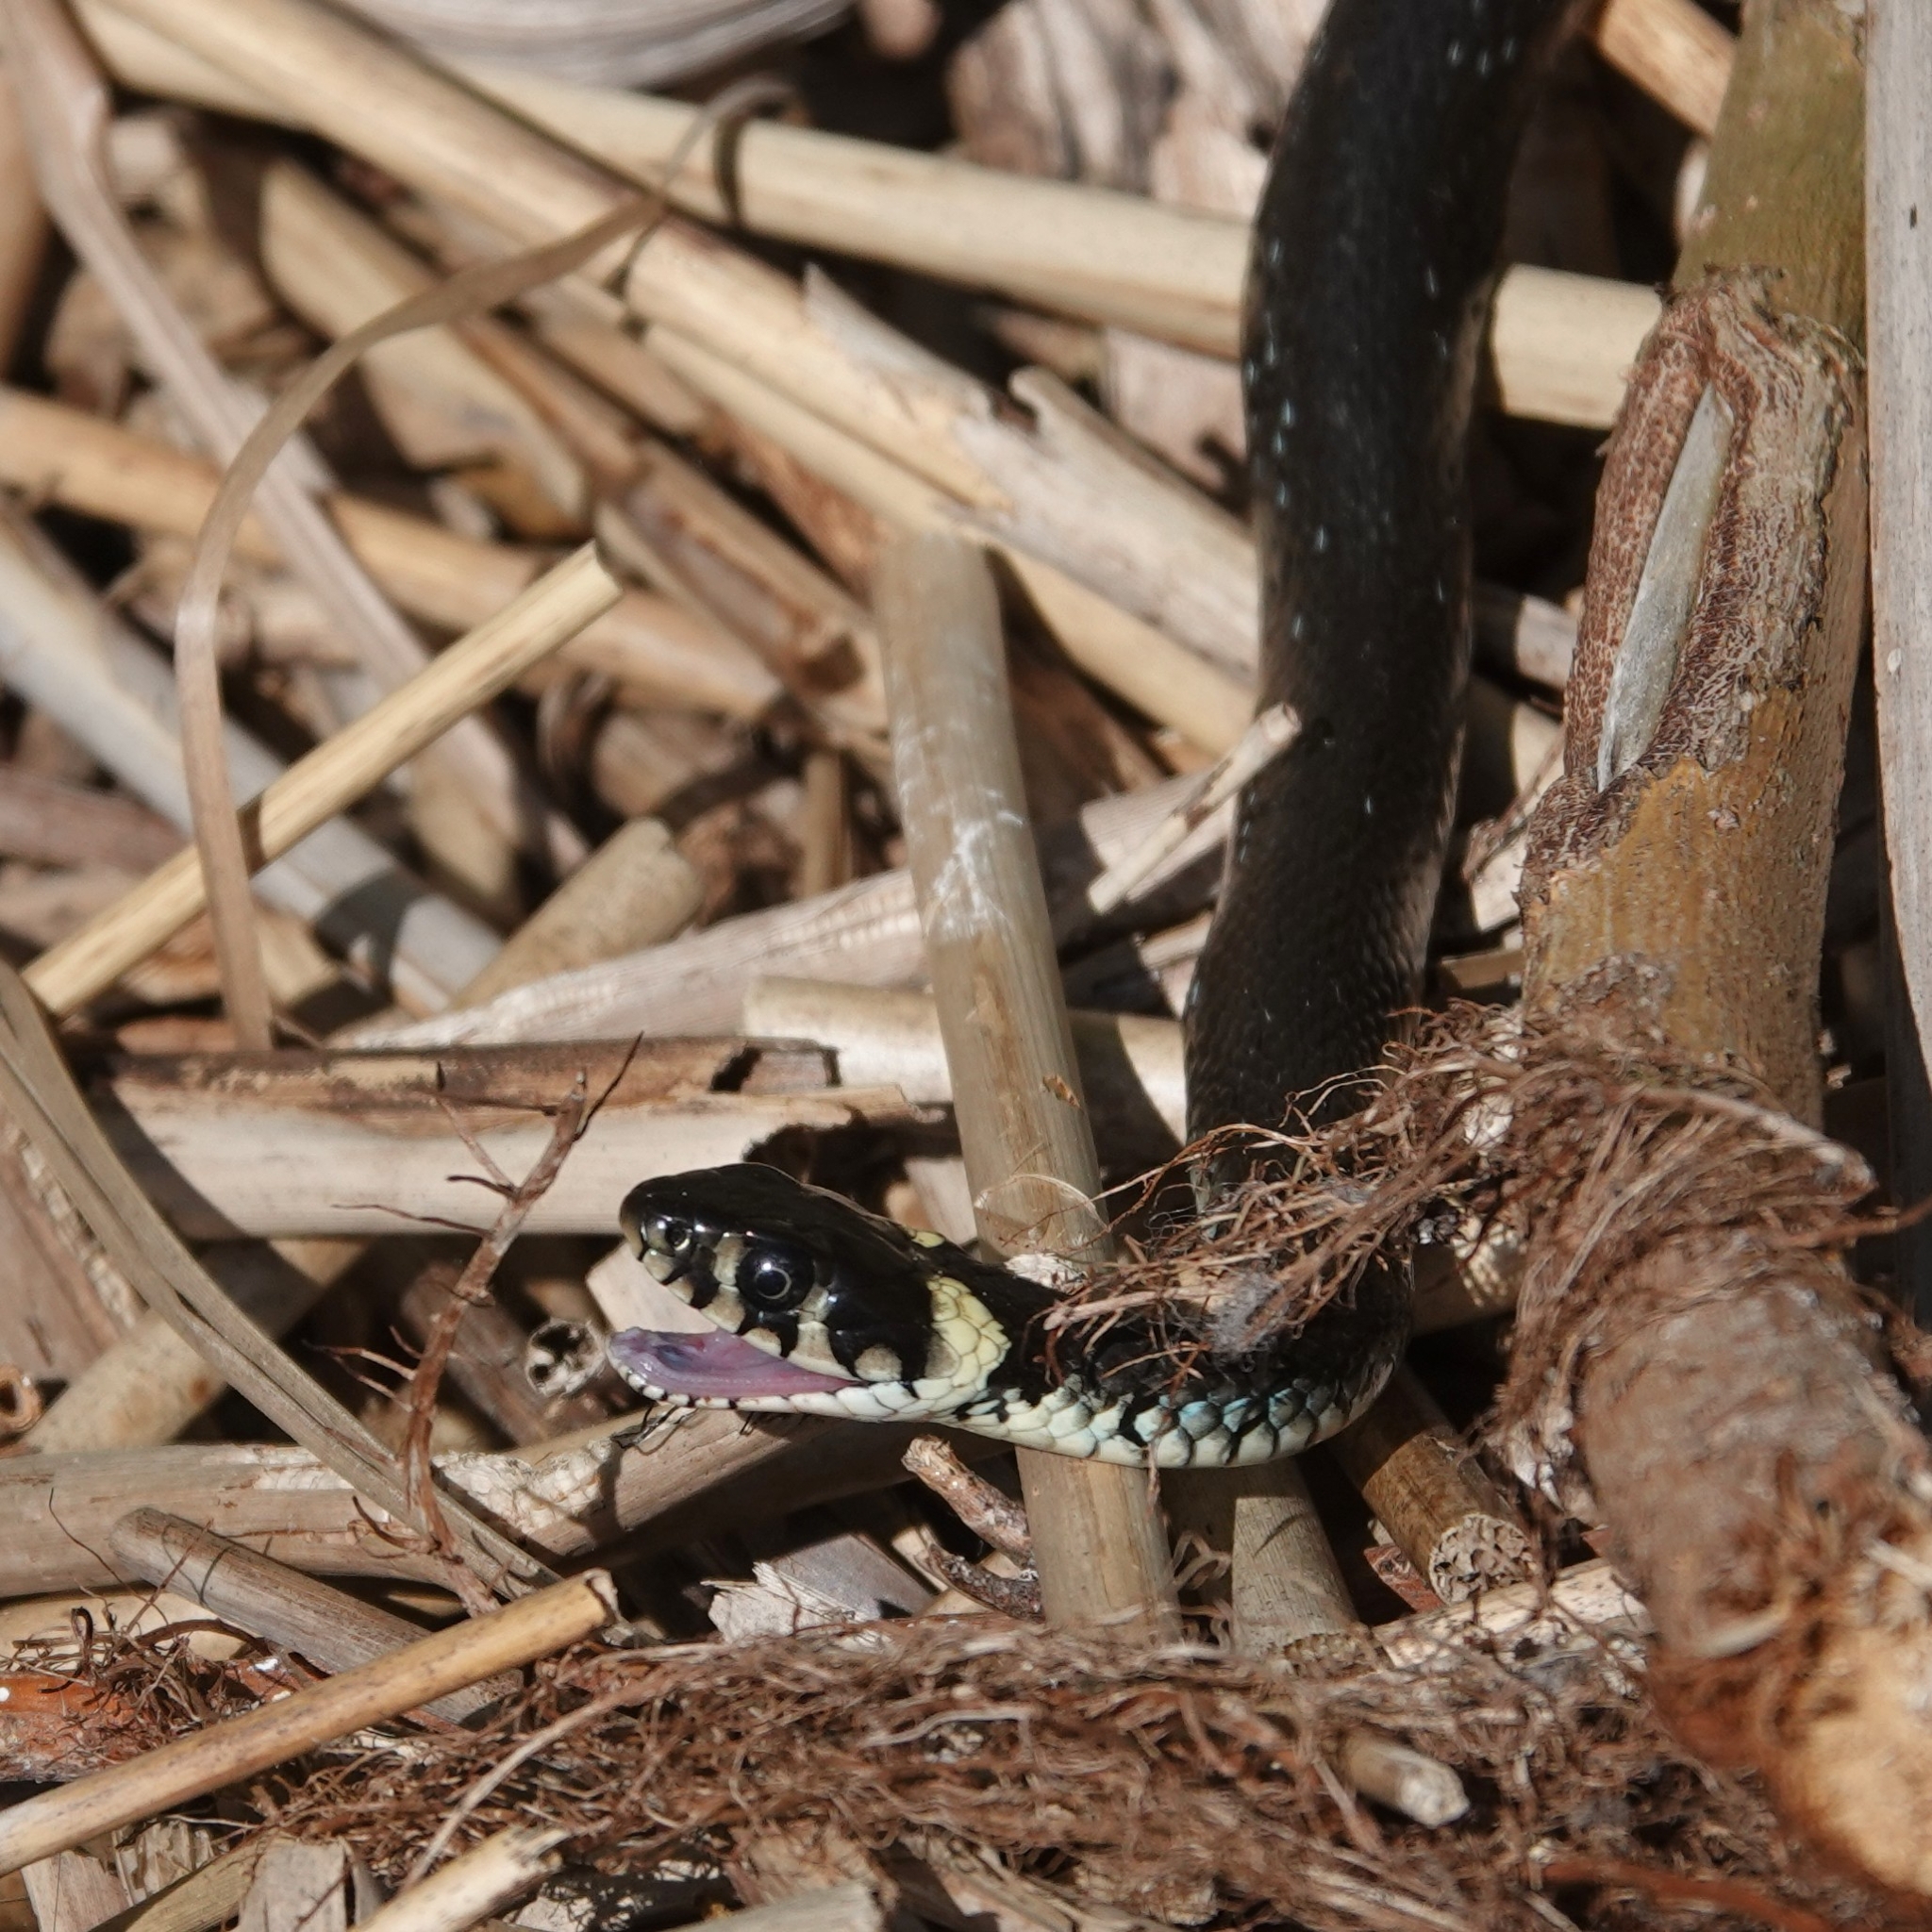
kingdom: Animalia
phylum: Chordata
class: Squamata
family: Colubridae
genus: Natrix
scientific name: Natrix natrix
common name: Grass snake
